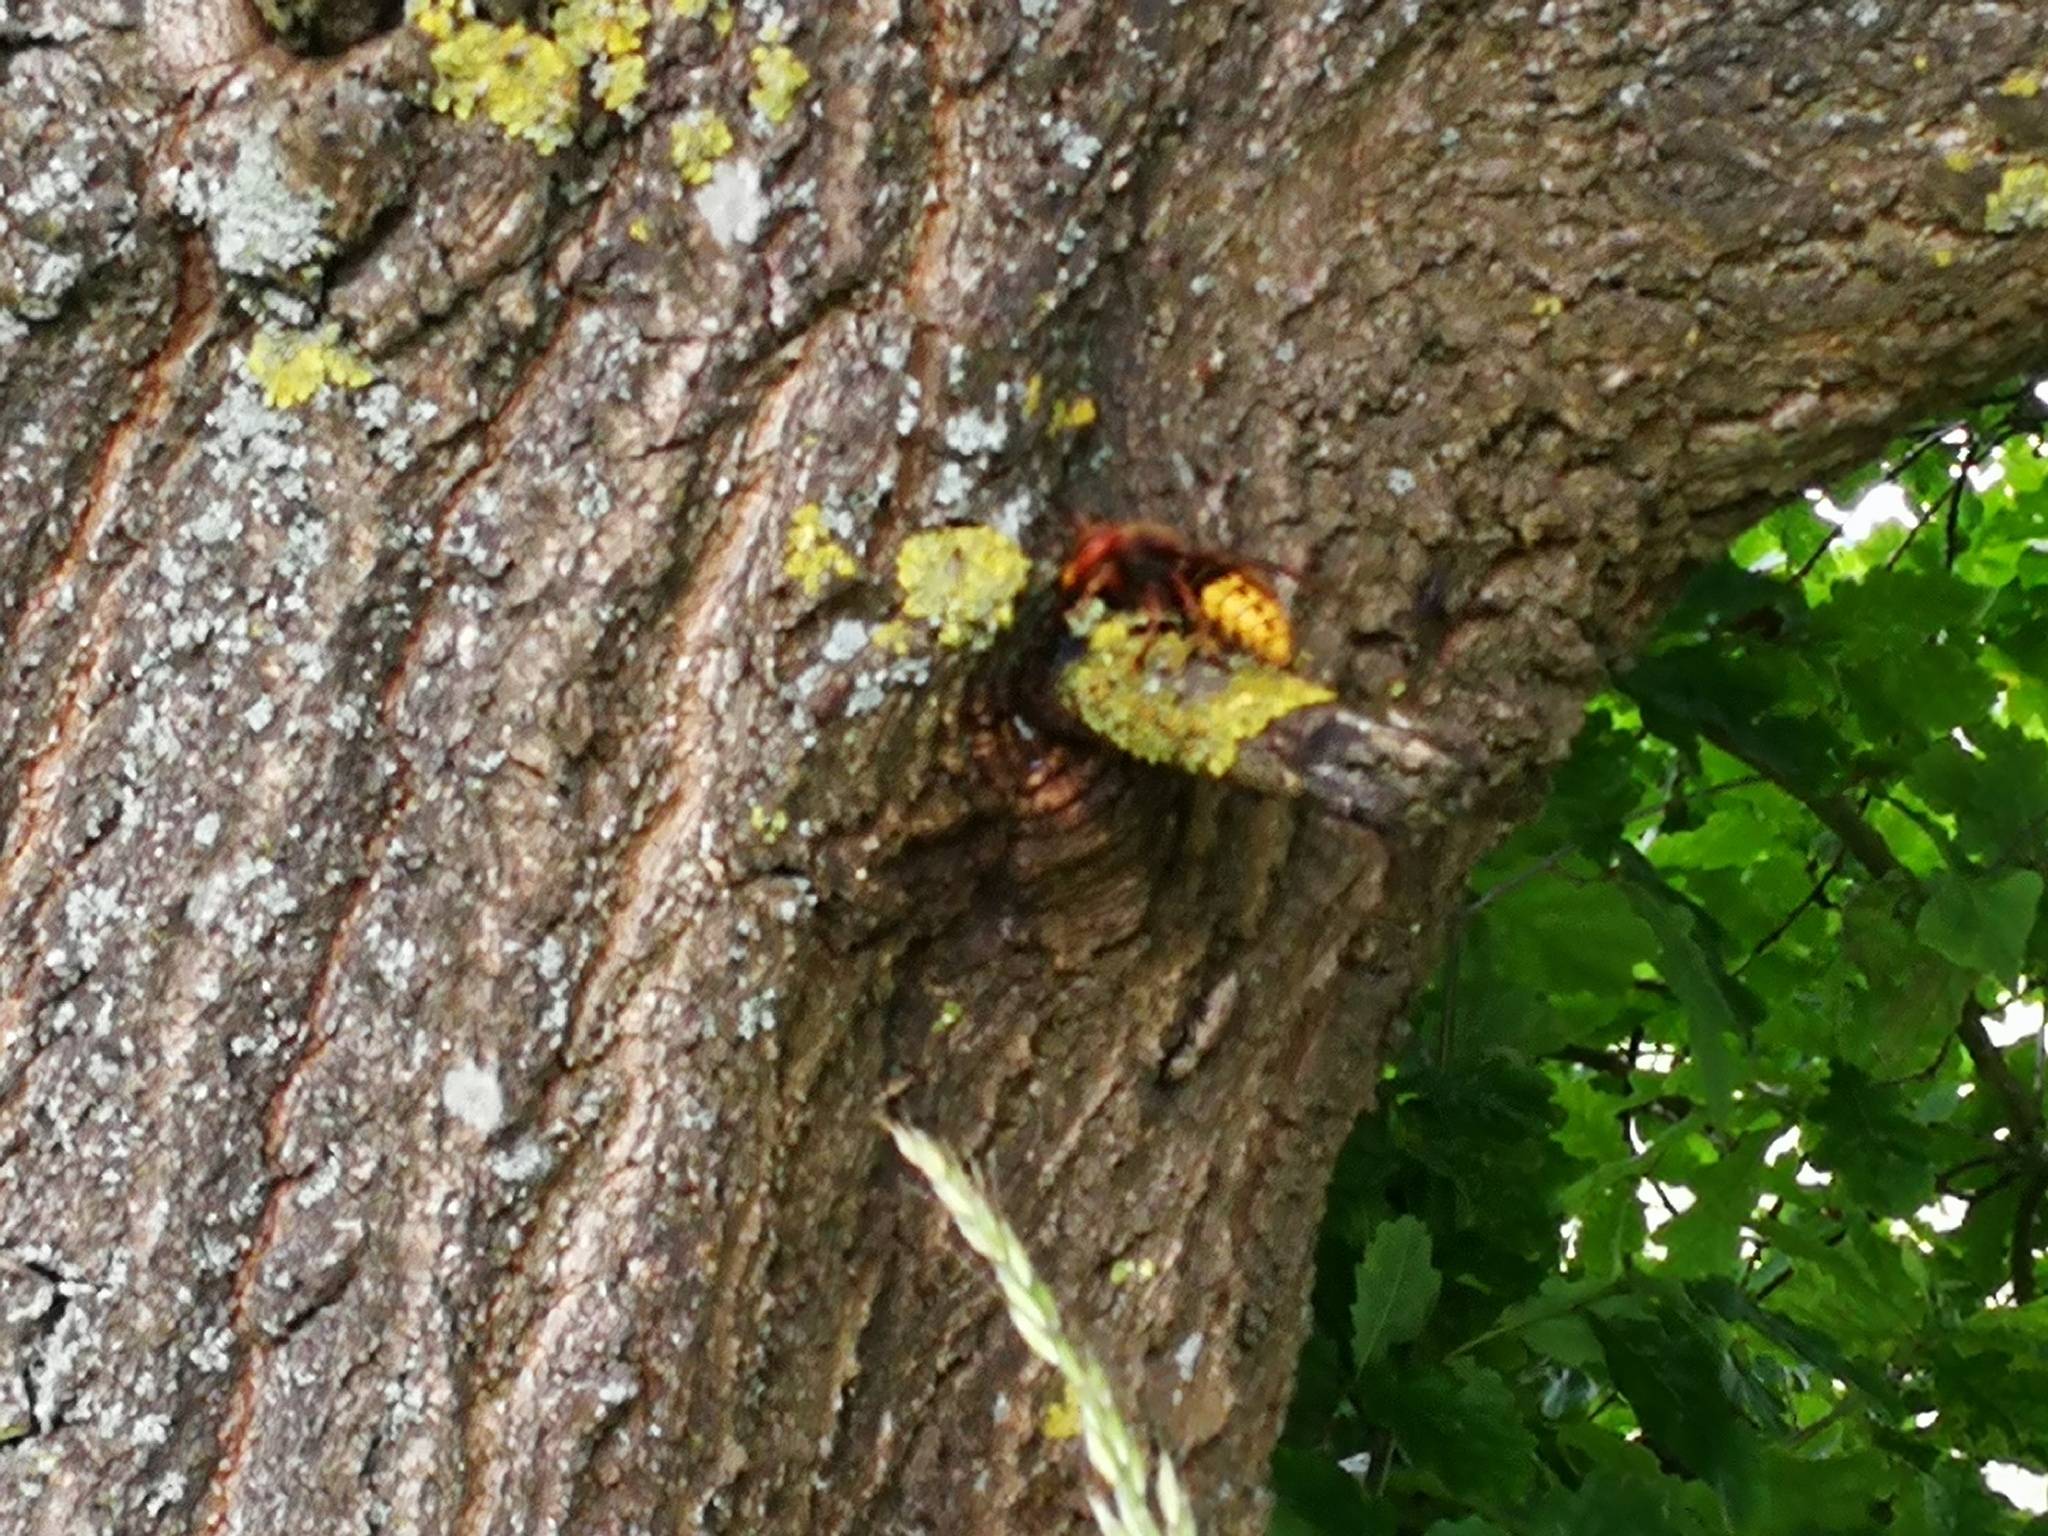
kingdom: Animalia
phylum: Arthropoda
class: Insecta
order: Hymenoptera
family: Vespidae
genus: Vespa
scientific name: Vespa crabro
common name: Hornet
